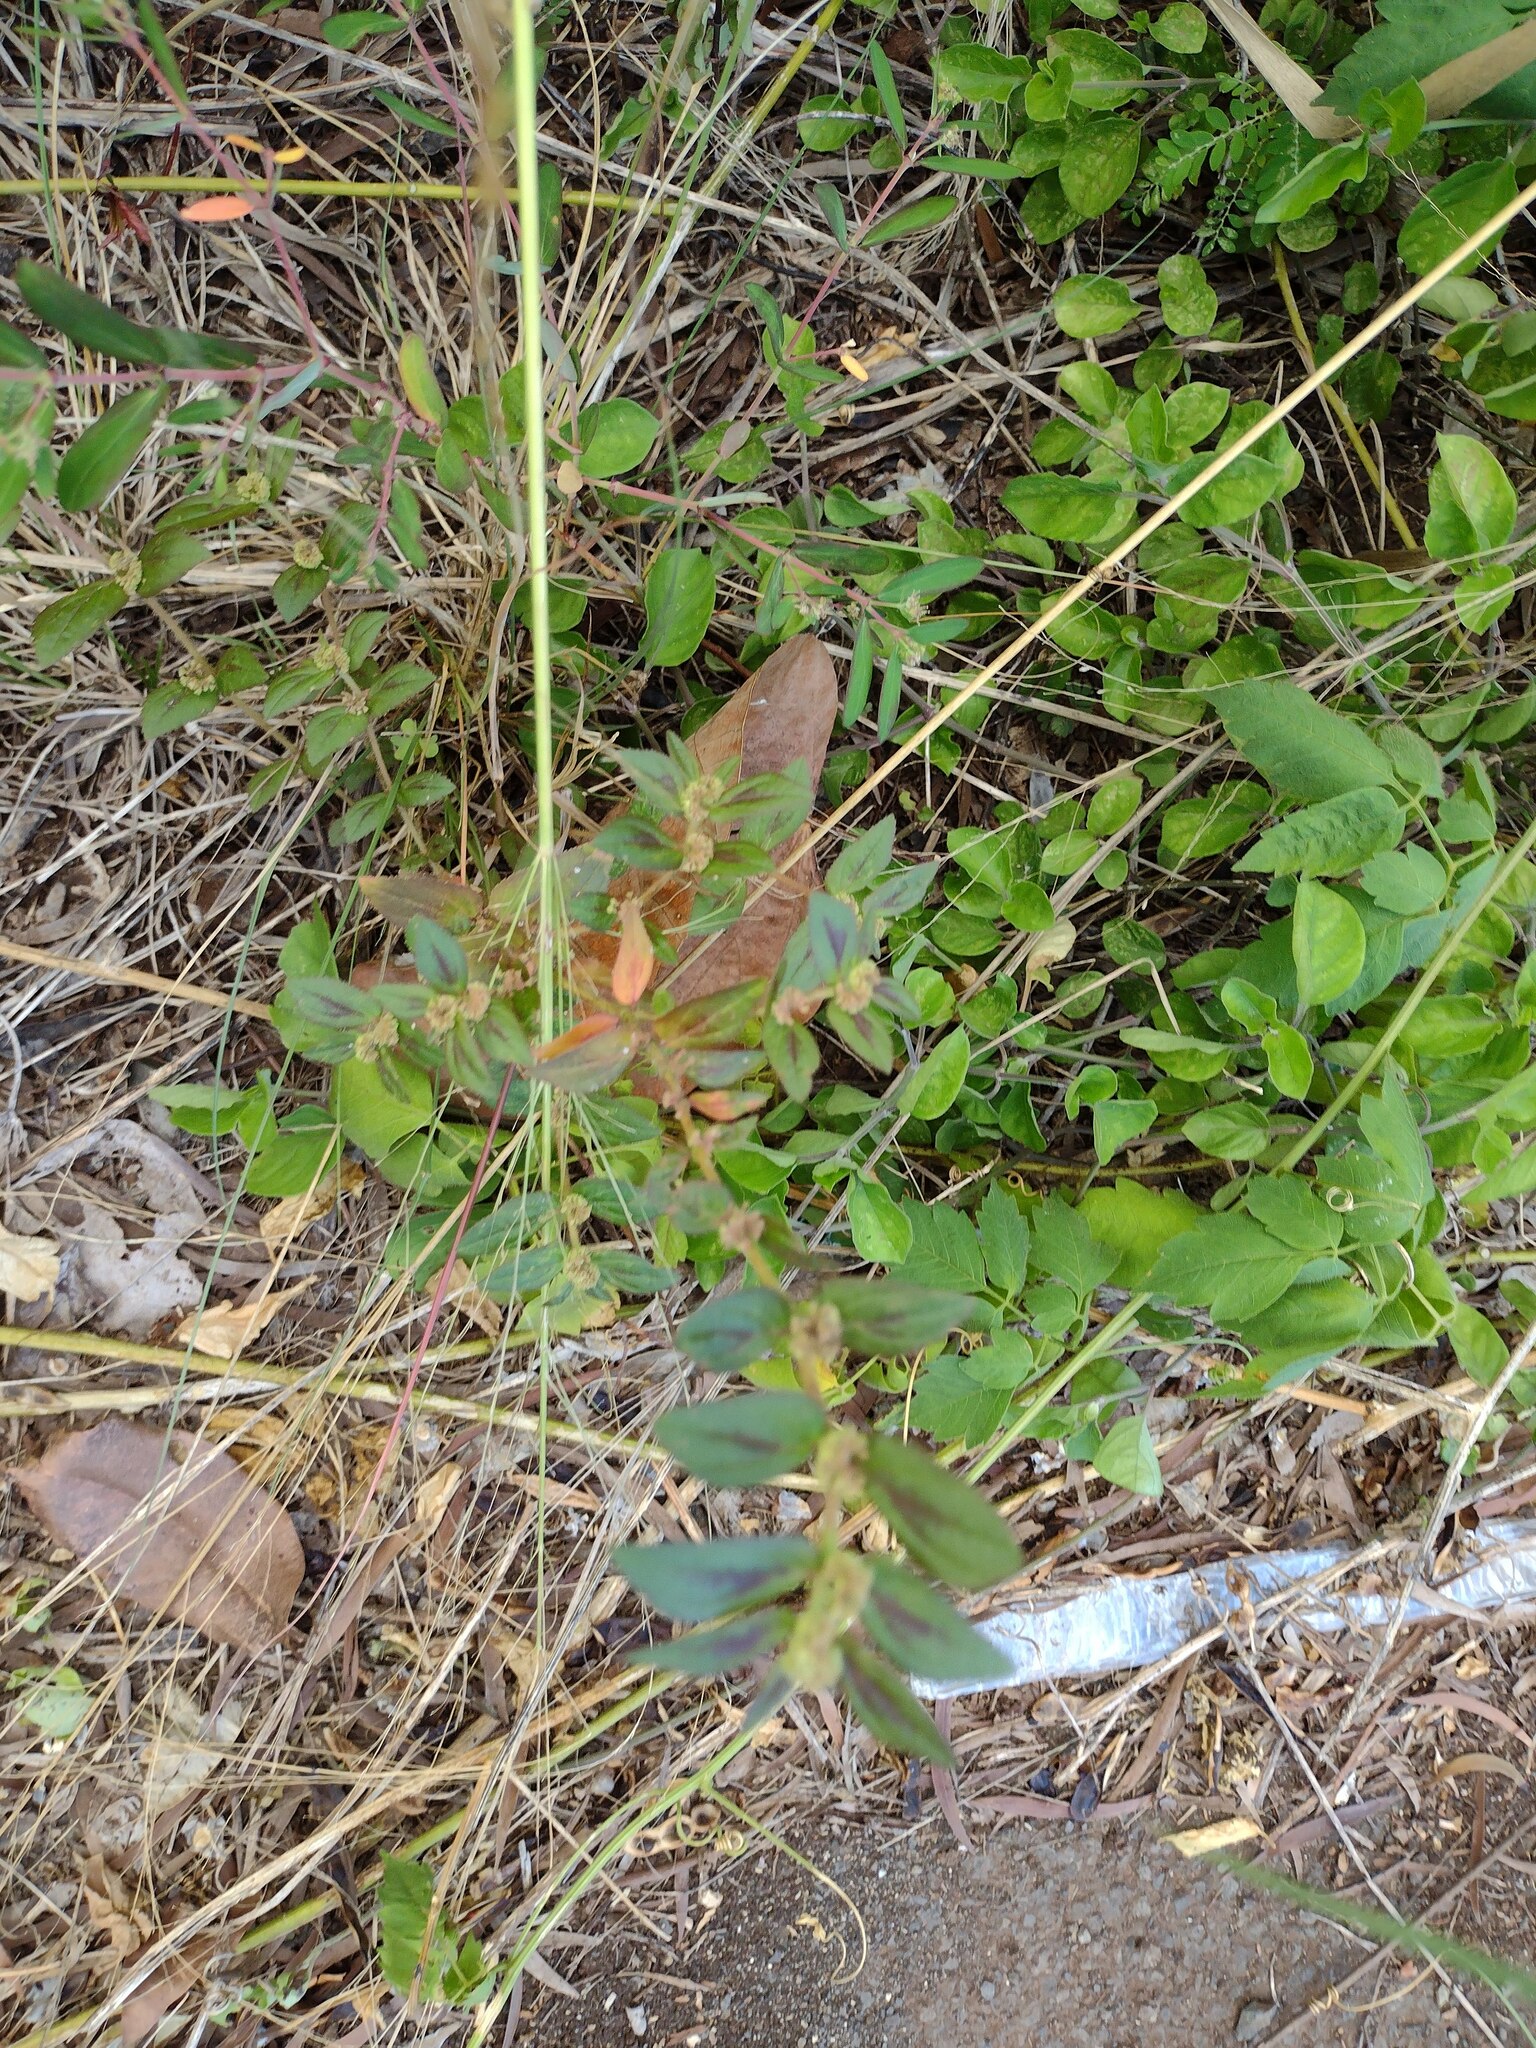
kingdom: Plantae
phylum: Tracheophyta
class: Magnoliopsida
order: Malpighiales
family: Euphorbiaceae
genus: Euphorbia
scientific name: Euphorbia hirta
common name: Pillpod sandmat
